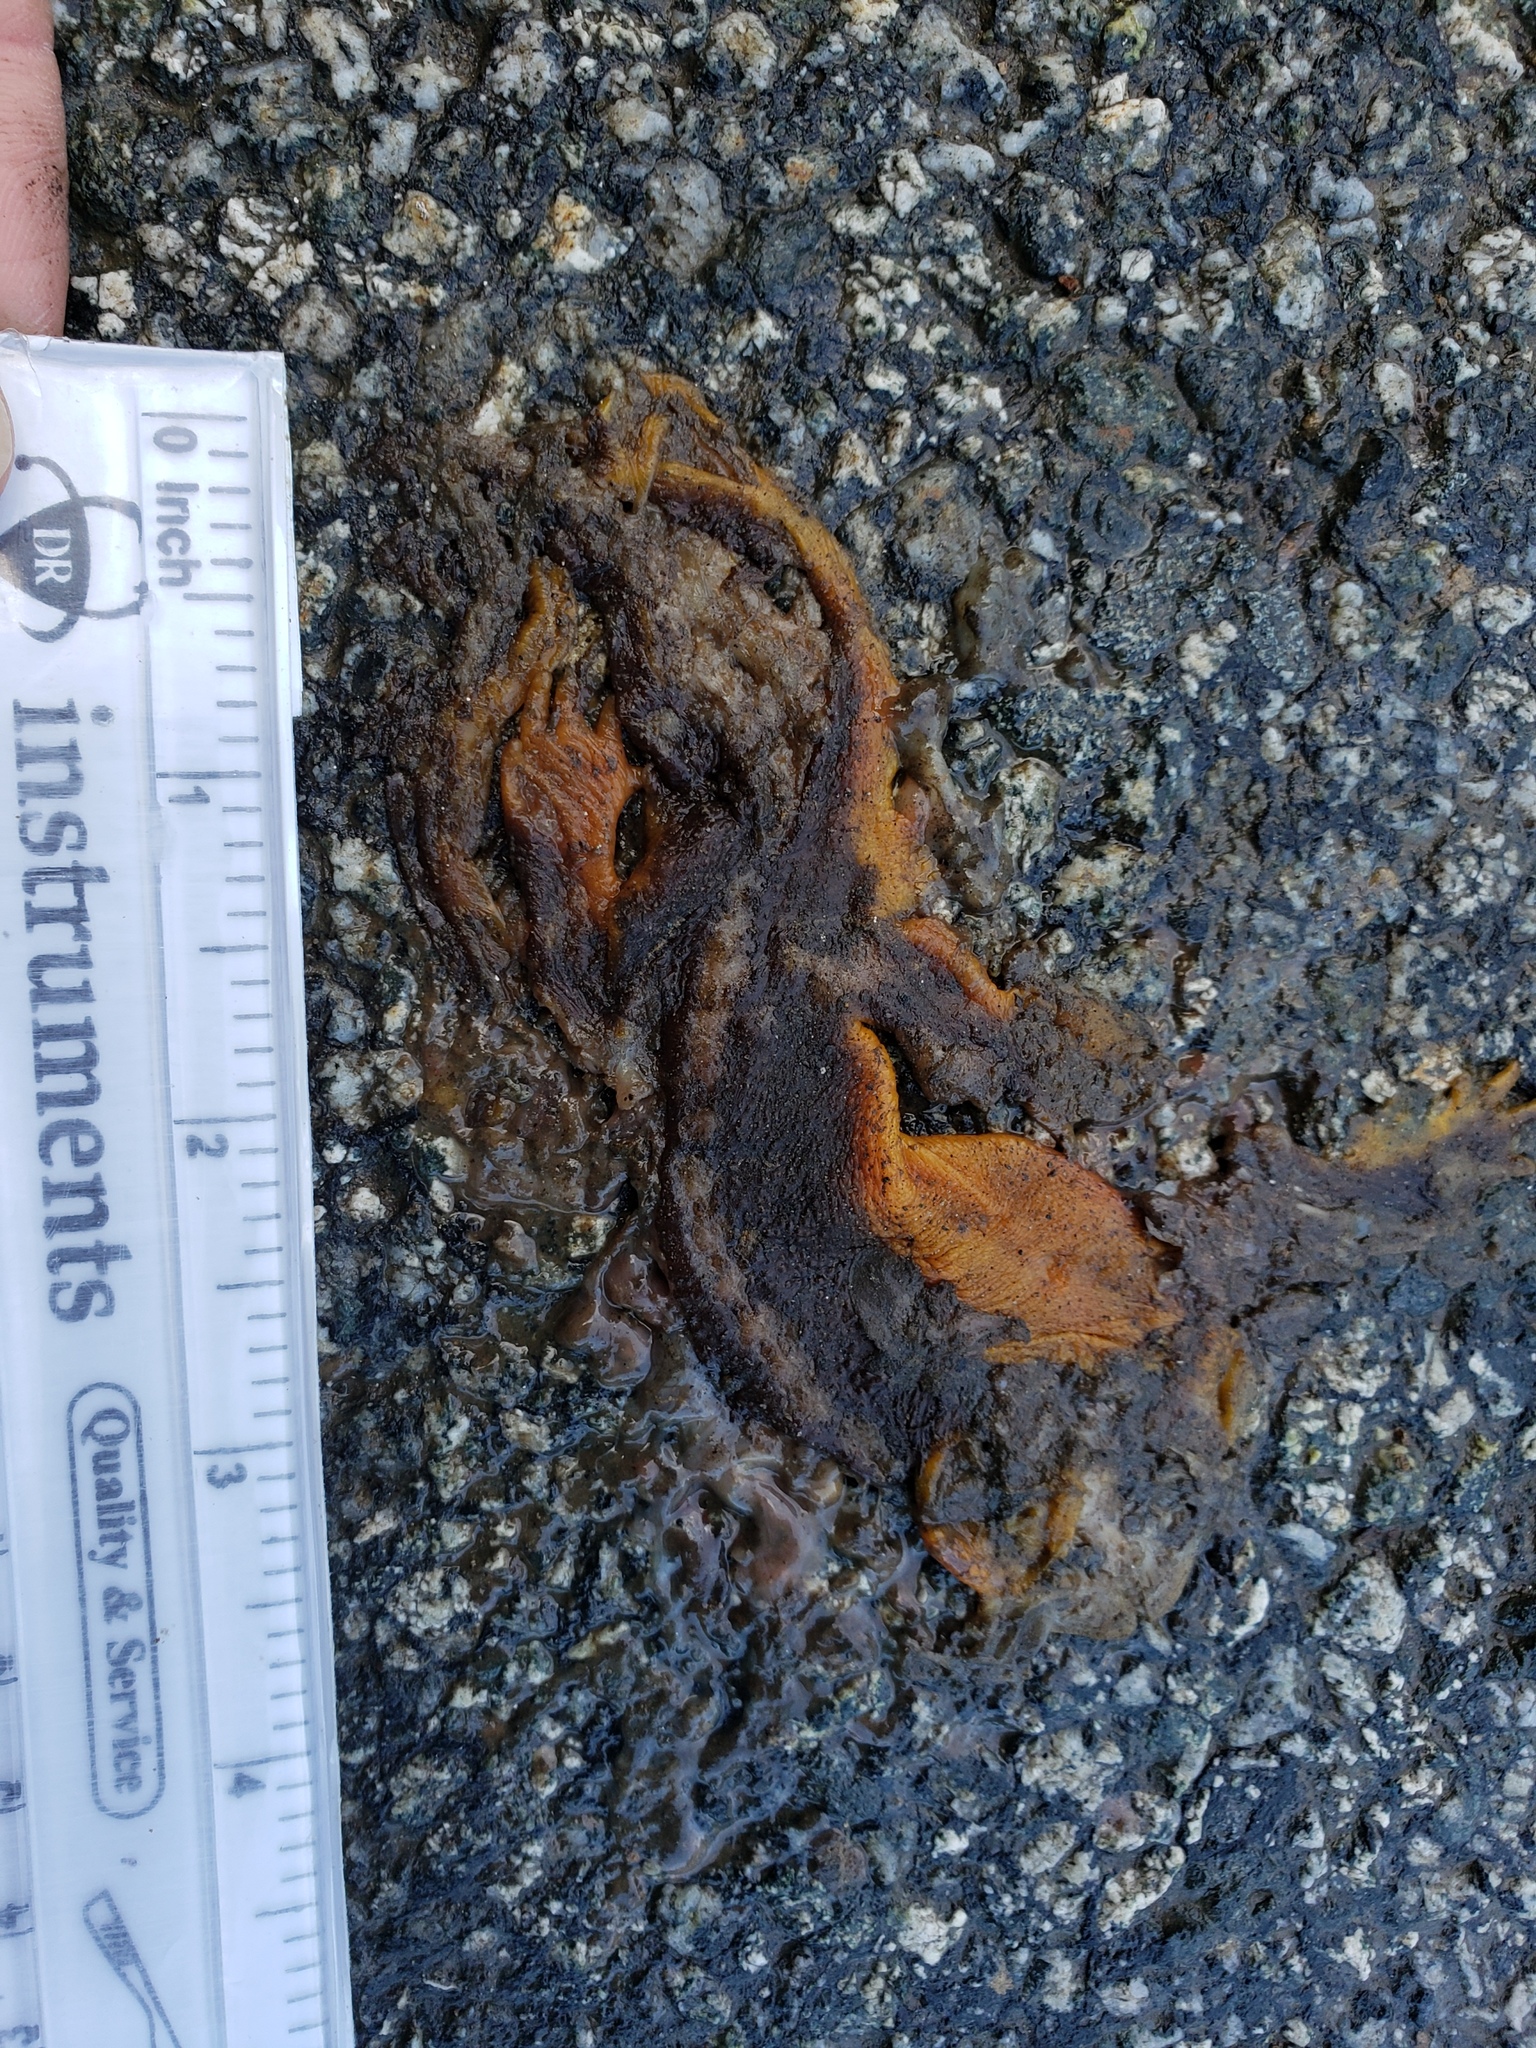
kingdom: Animalia
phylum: Chordata
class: Amphibia
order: Caudata
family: Salamandridae
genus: Taricha
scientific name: Taricha
